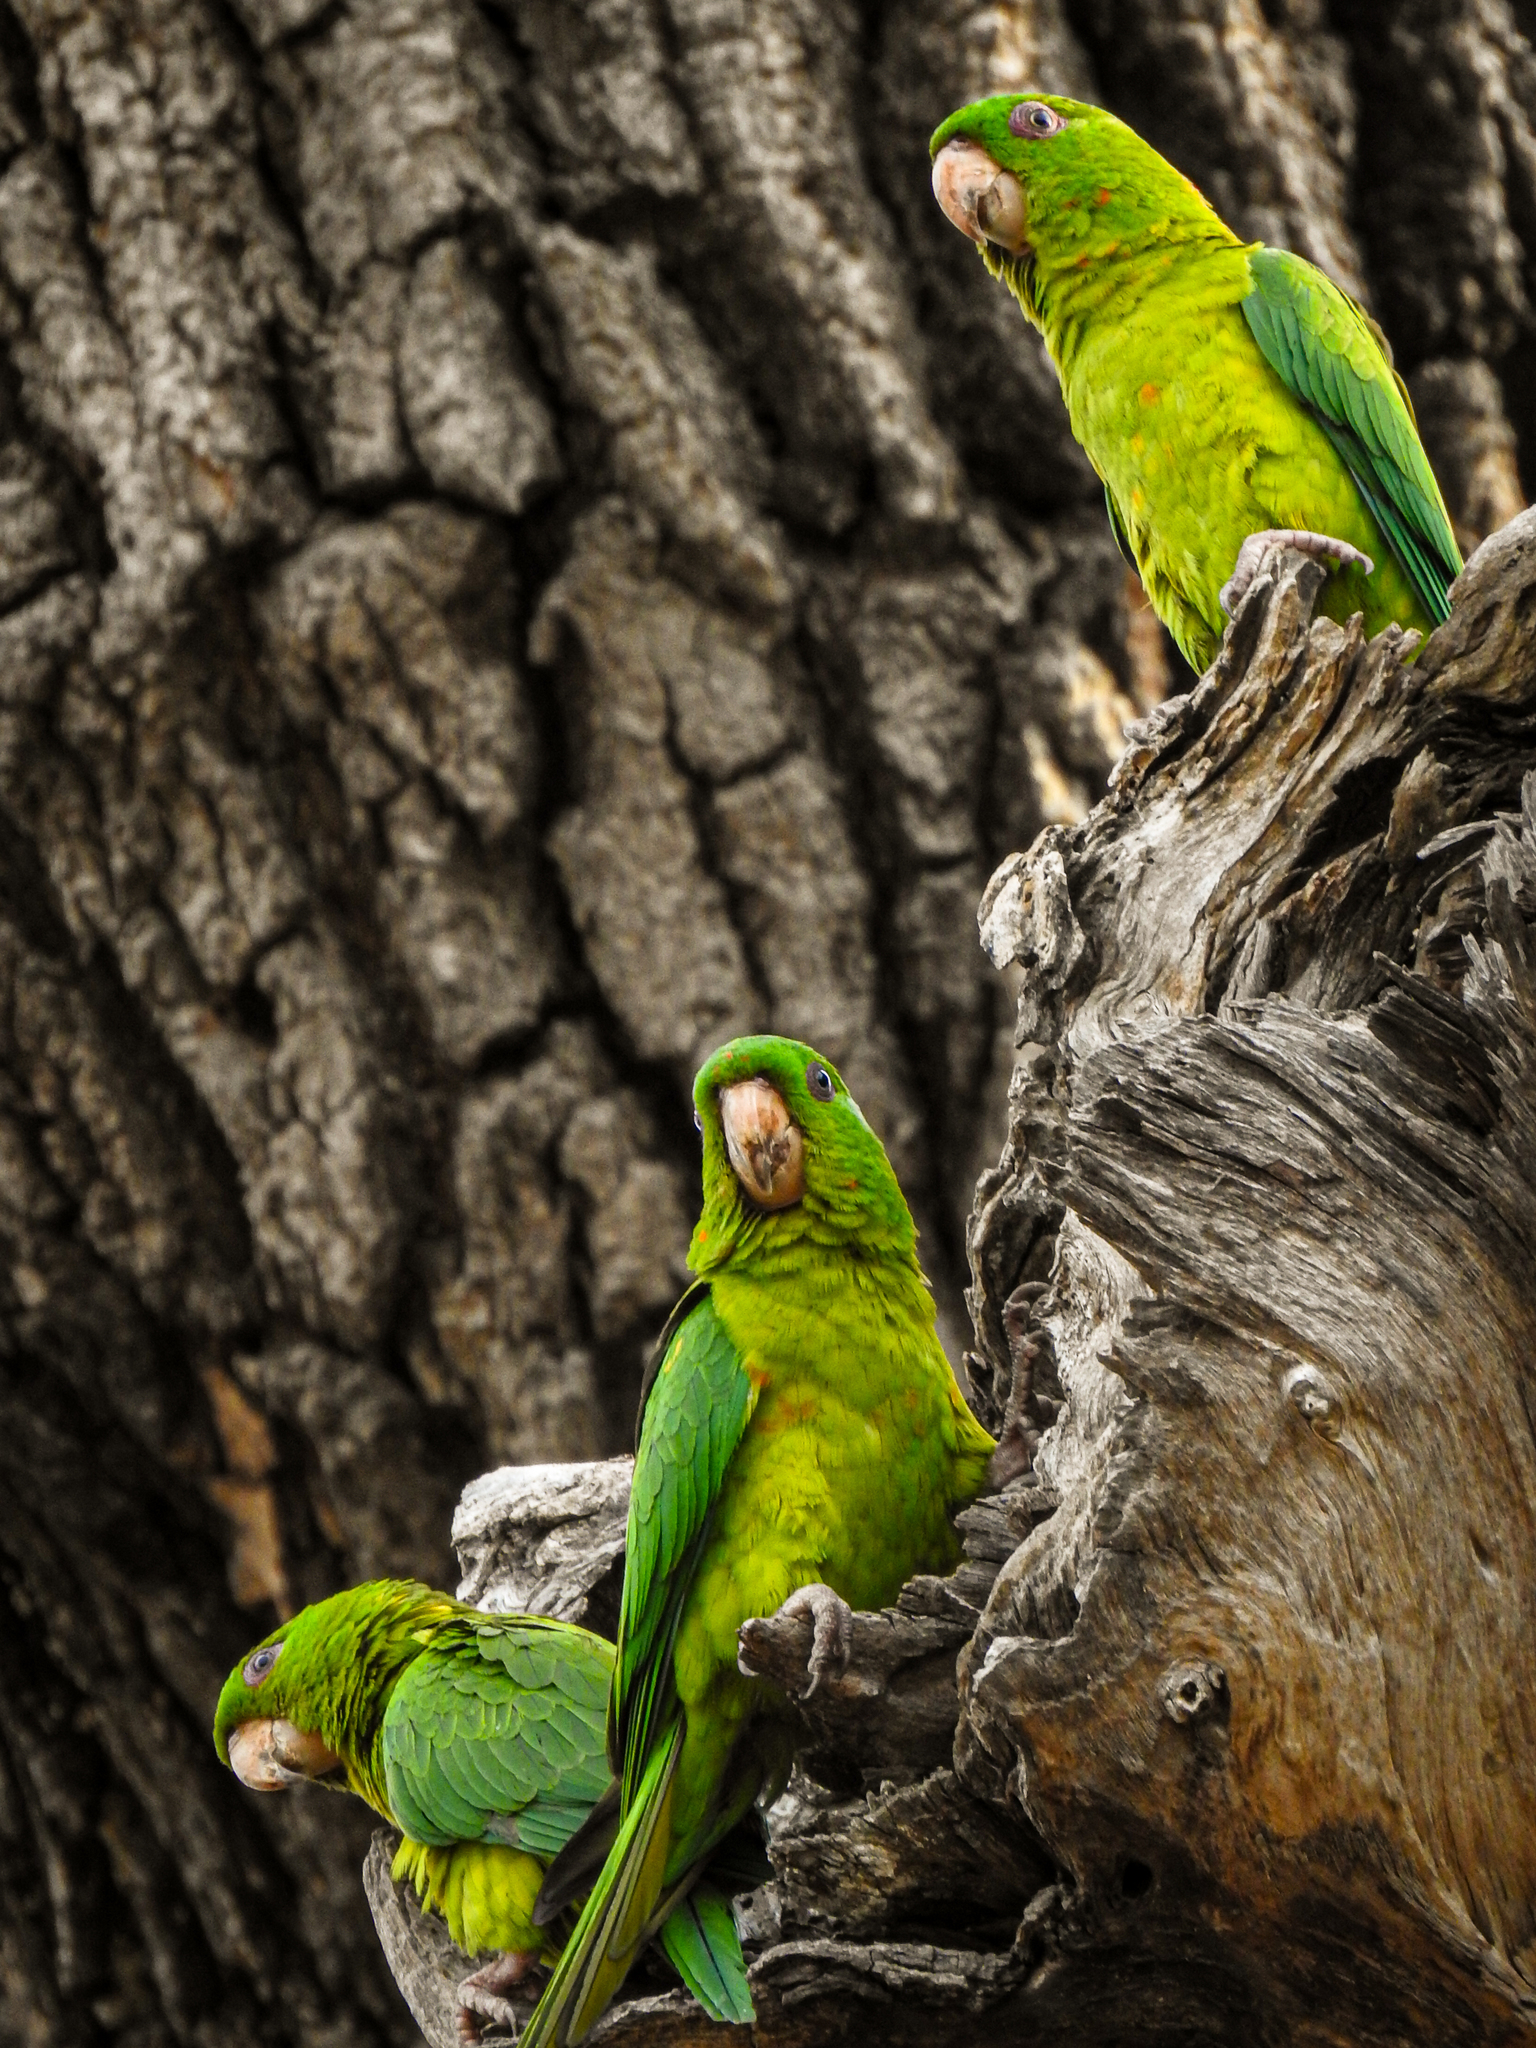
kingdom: Animalia
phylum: Chordata
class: Aves
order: Psittaciformes
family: Psittacidae
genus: Aratinga
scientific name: Aratinga holochlora
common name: Green parakeet
